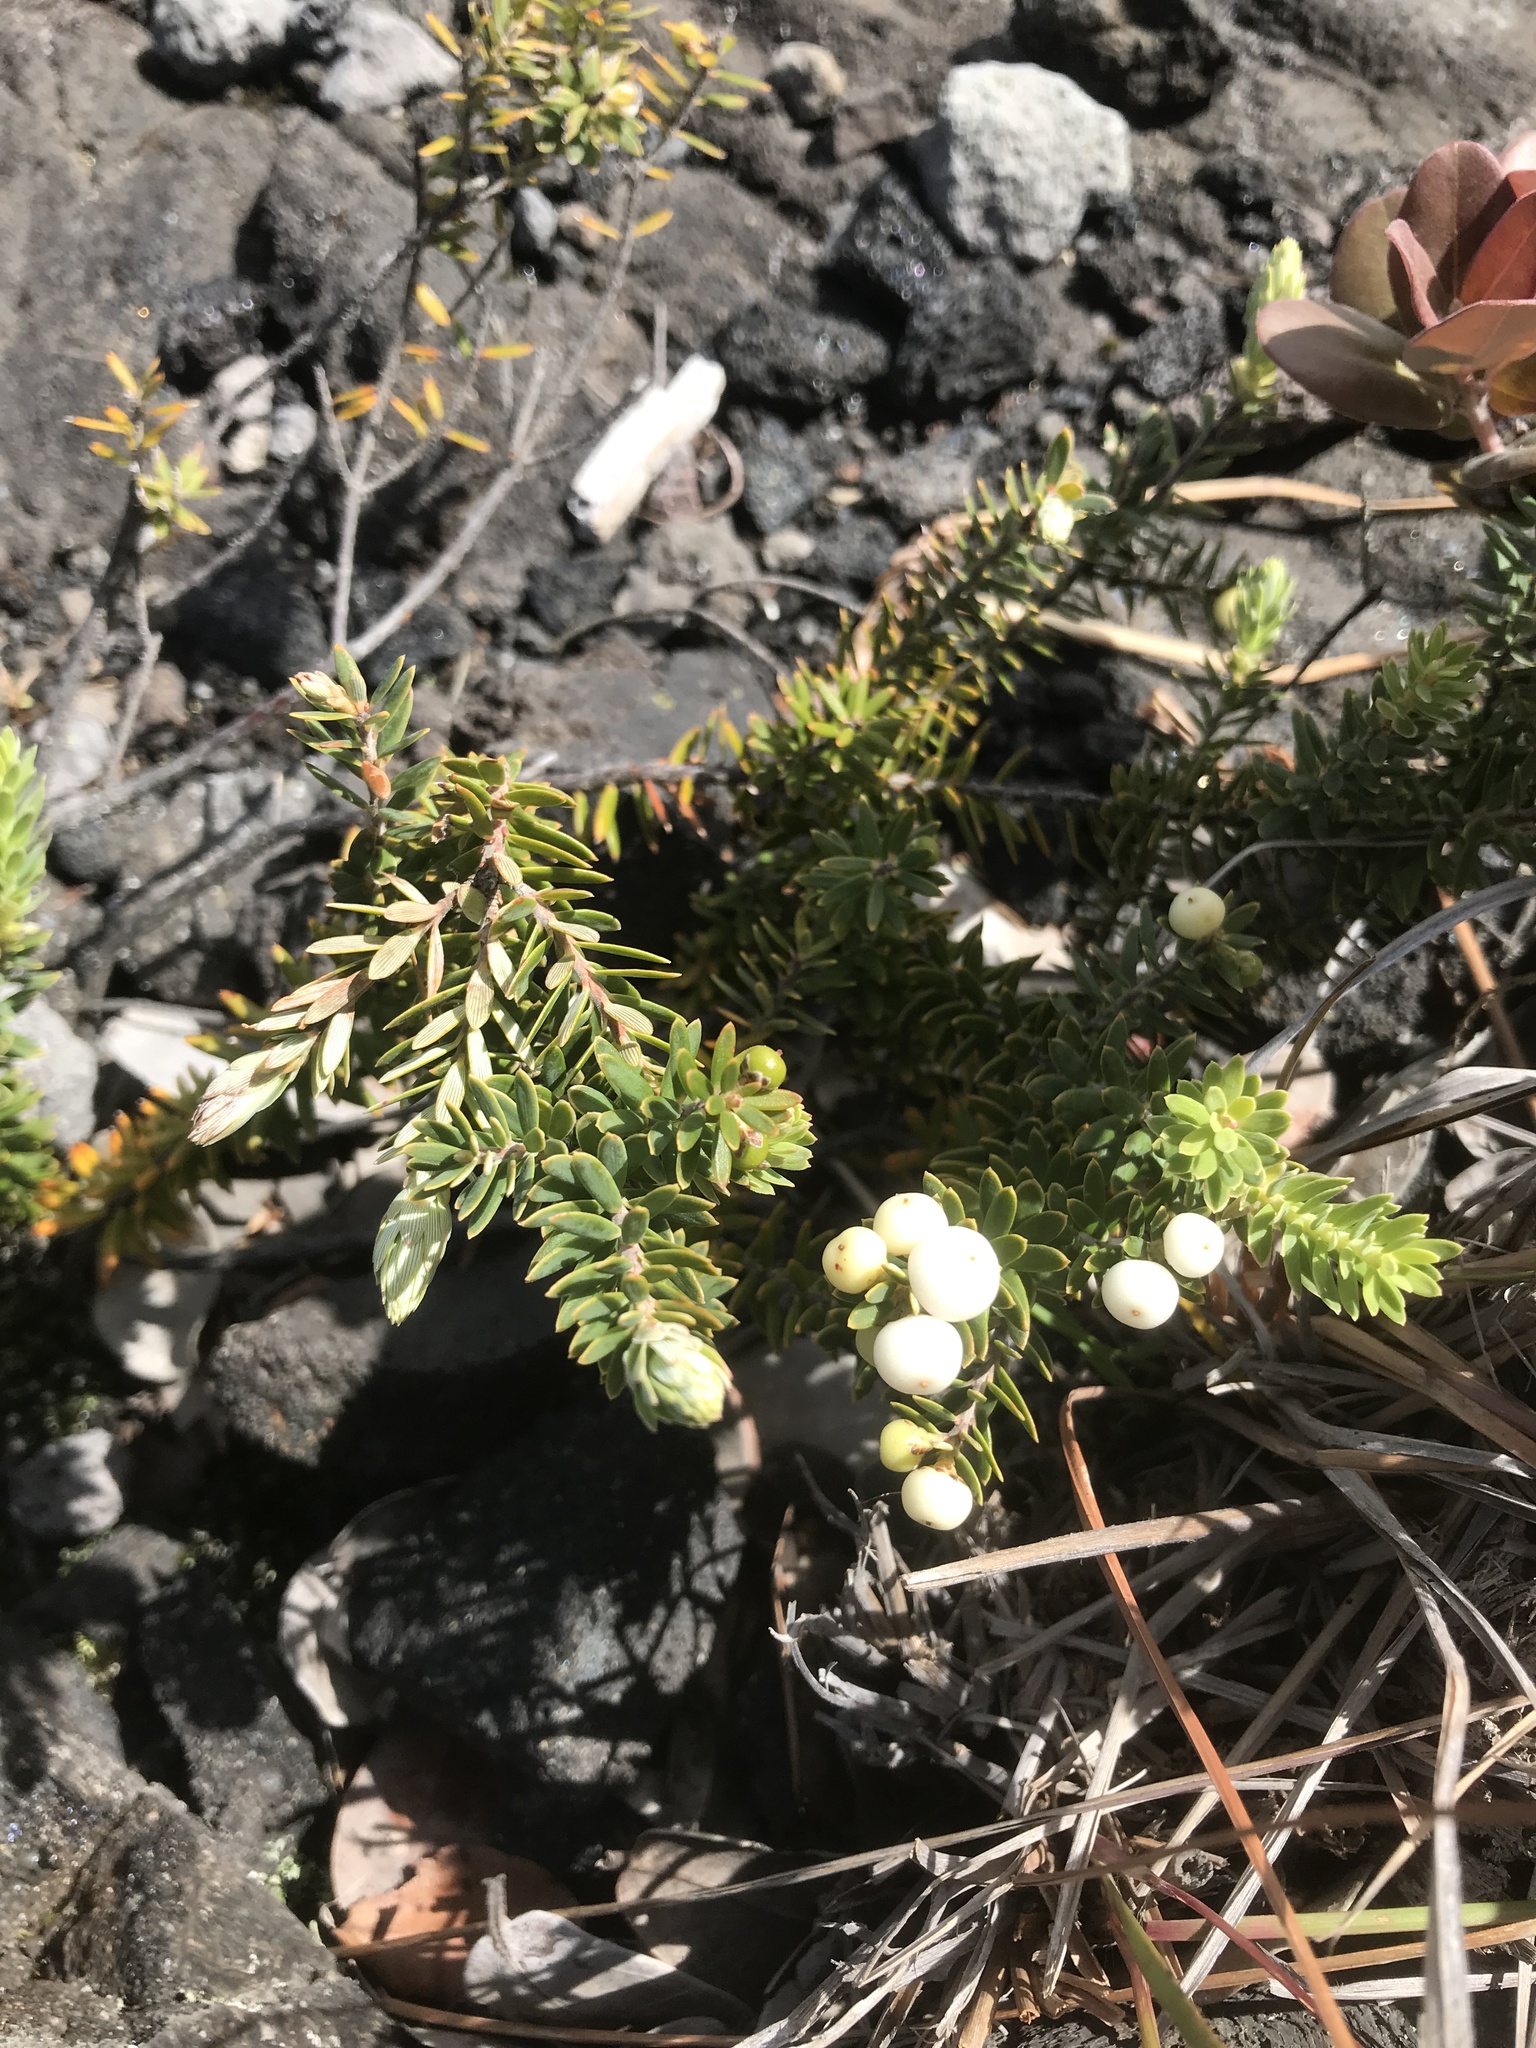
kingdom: Plantae
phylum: Tracheophyta
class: Magnoliopsida
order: Ericales
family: Ericaceae
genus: Leptecophylla
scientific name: Leptecophylla tameiameiae
